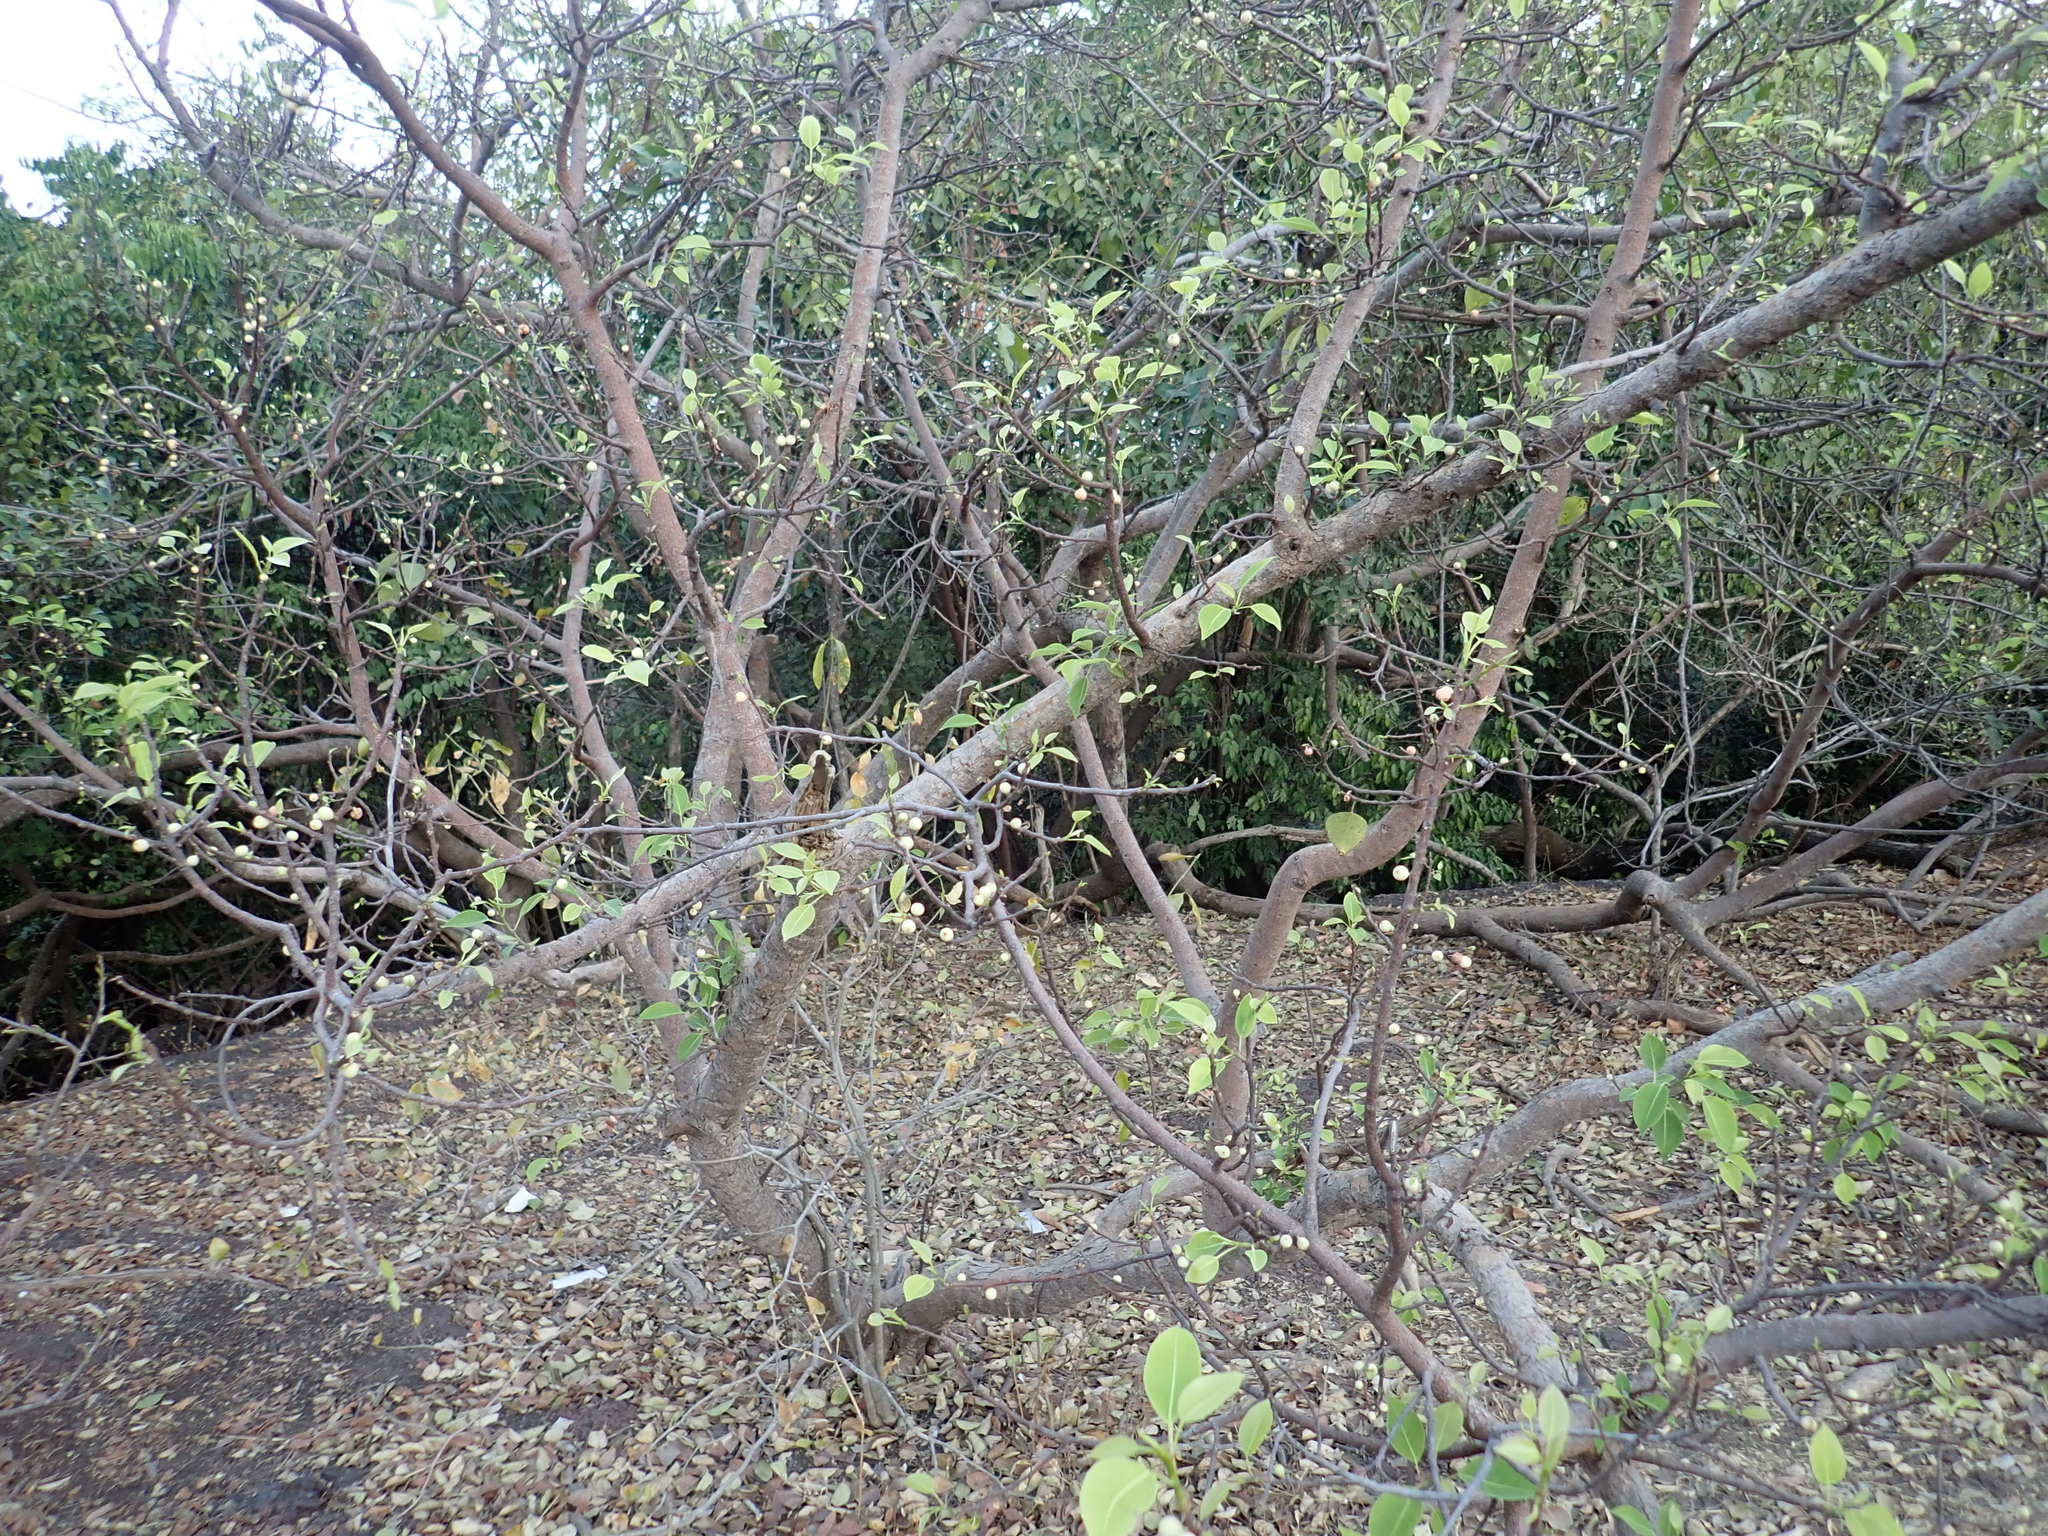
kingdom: Plantae
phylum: Tracheophyta
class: Magnoliopsida
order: Rosales
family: Moraceae
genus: Ficus
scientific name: Ficus cordata
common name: Namaqua rock fig
